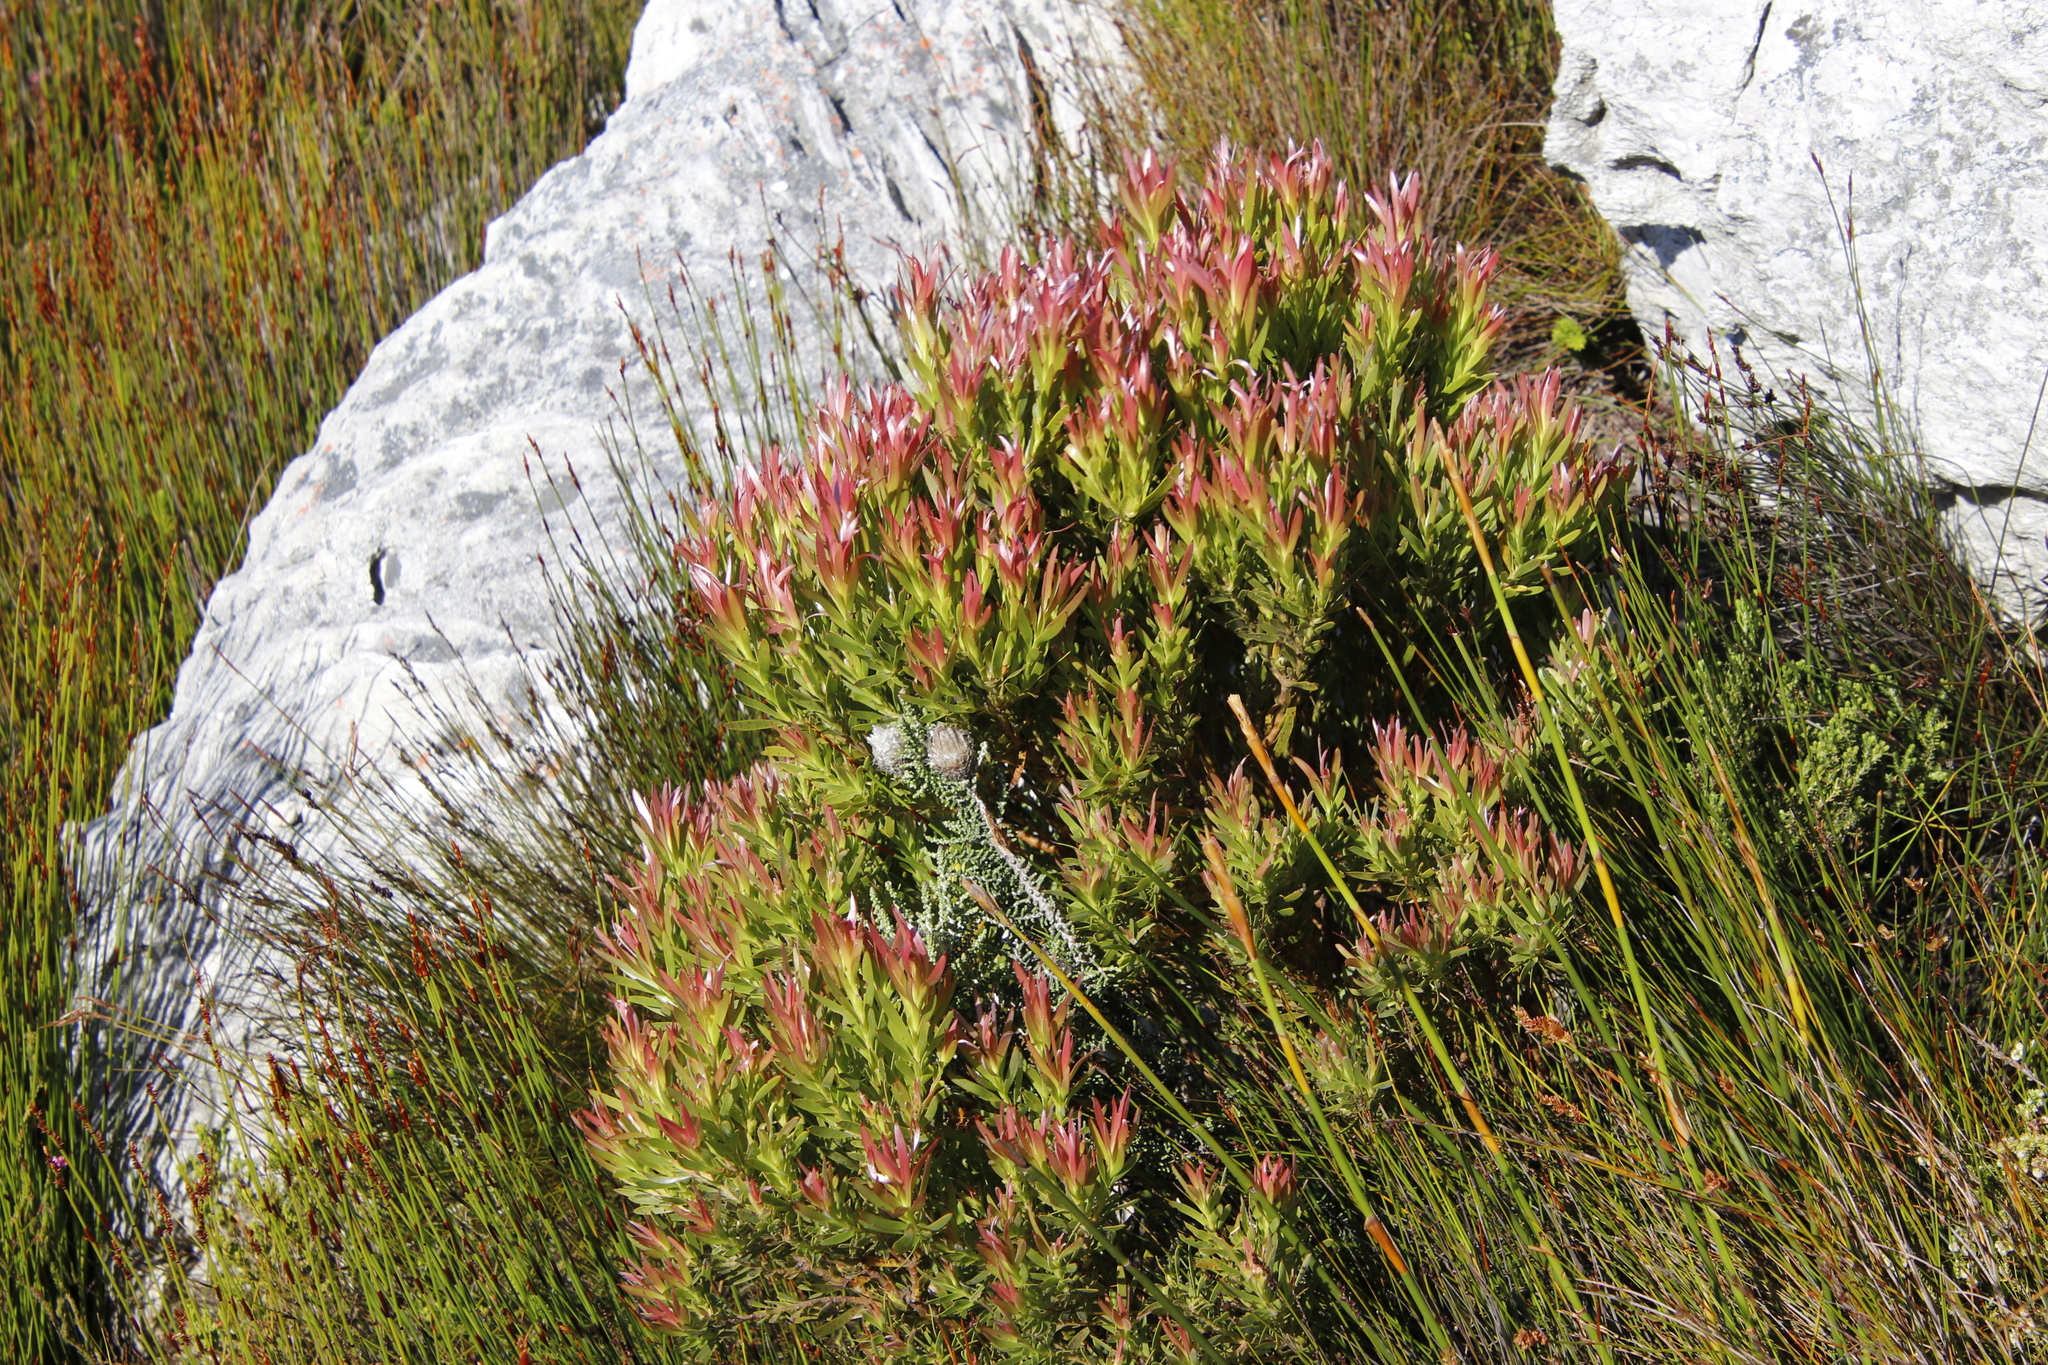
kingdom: Plantae
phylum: Tracheophyta
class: Magnoliopsida
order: Proteales
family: Proteaceae
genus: Leucadendron
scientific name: Leucadendron xanthoconus
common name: Sickle-leaf conebush
